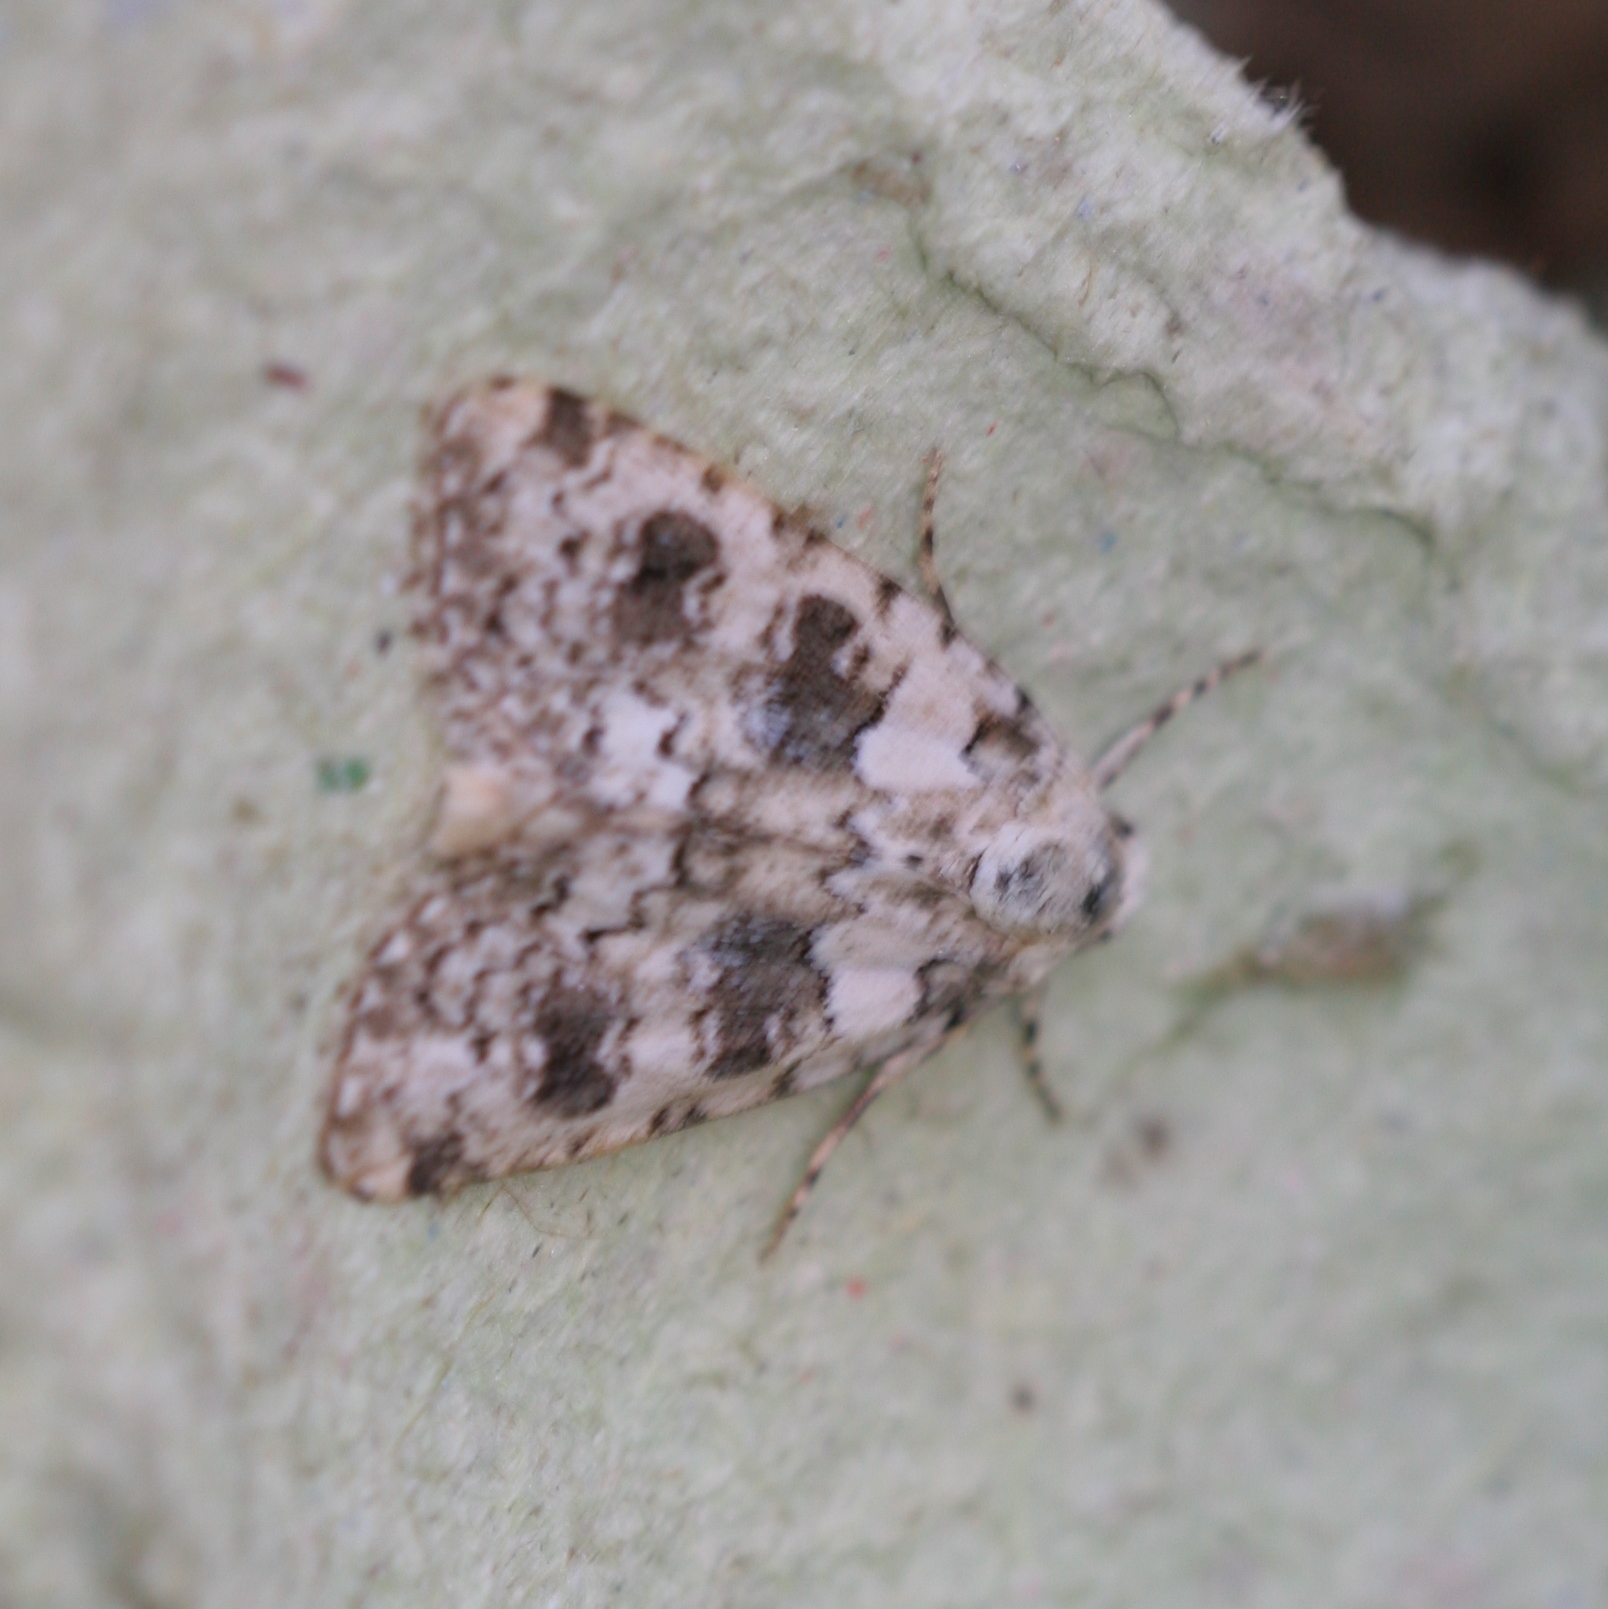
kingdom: Animalia
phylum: Arthropoda
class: Insecta
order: Lepidoptera
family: Noctuidae
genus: Bryophila
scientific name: Bryophila domestica
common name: Marbled beauty
